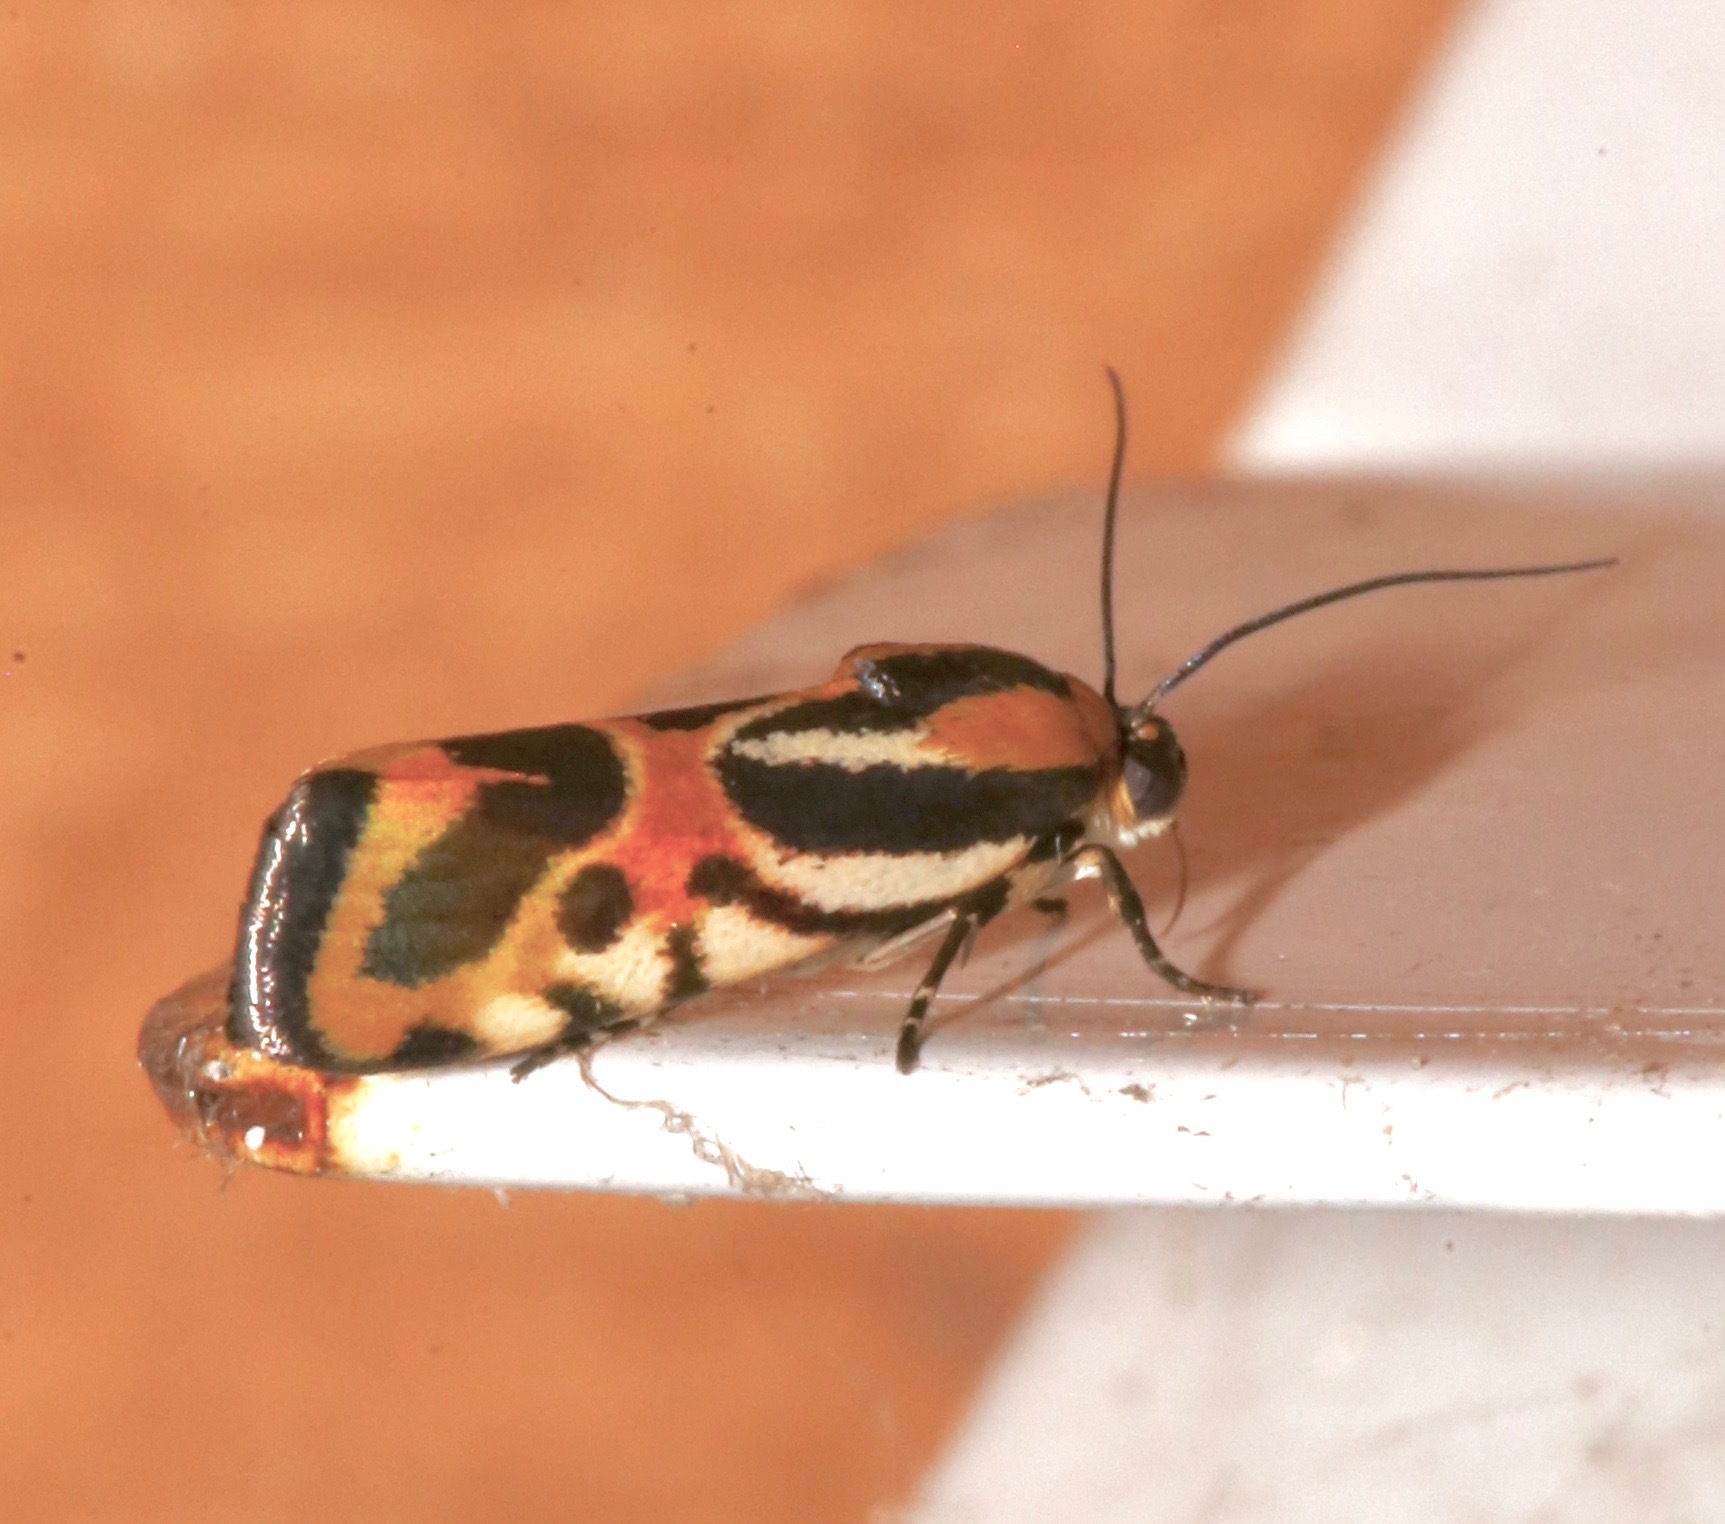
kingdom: Animalia
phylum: Arthropoda
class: Insecta
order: Lepidoptera
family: Noctuidae
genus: Acontia
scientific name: Acontia onagrus
